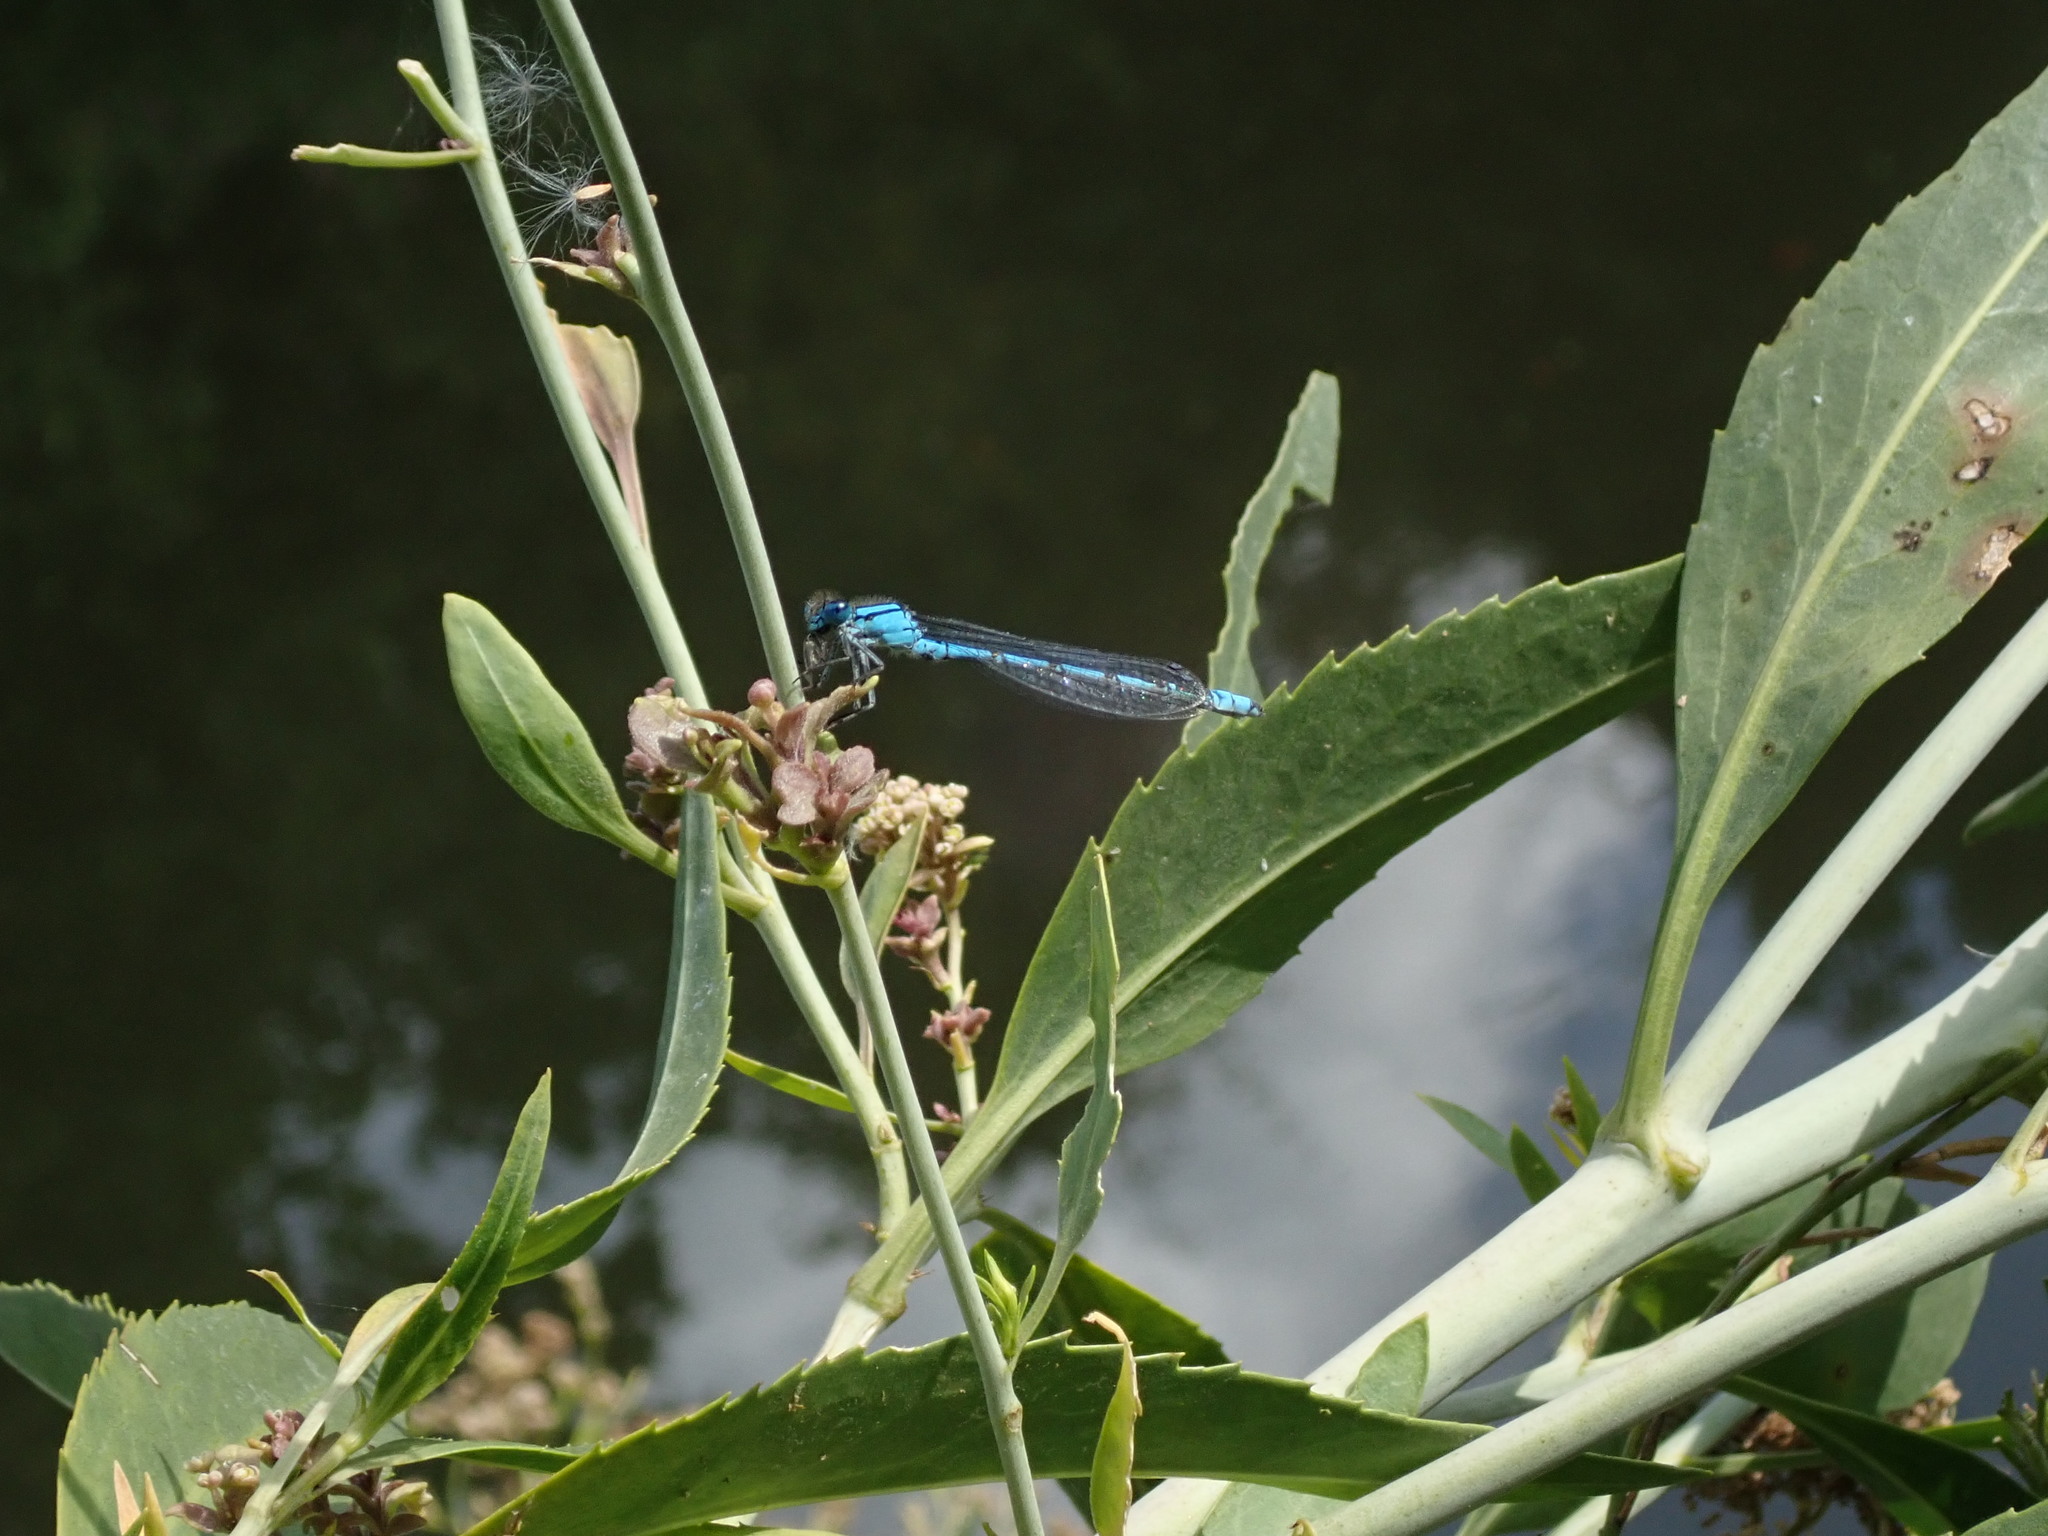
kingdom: Animalia
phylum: Arthropoda
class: Insecta
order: Odonata
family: Coenagrionidae
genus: Enallagma
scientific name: Enallagma cyathigerum
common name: Common blue damselfly
